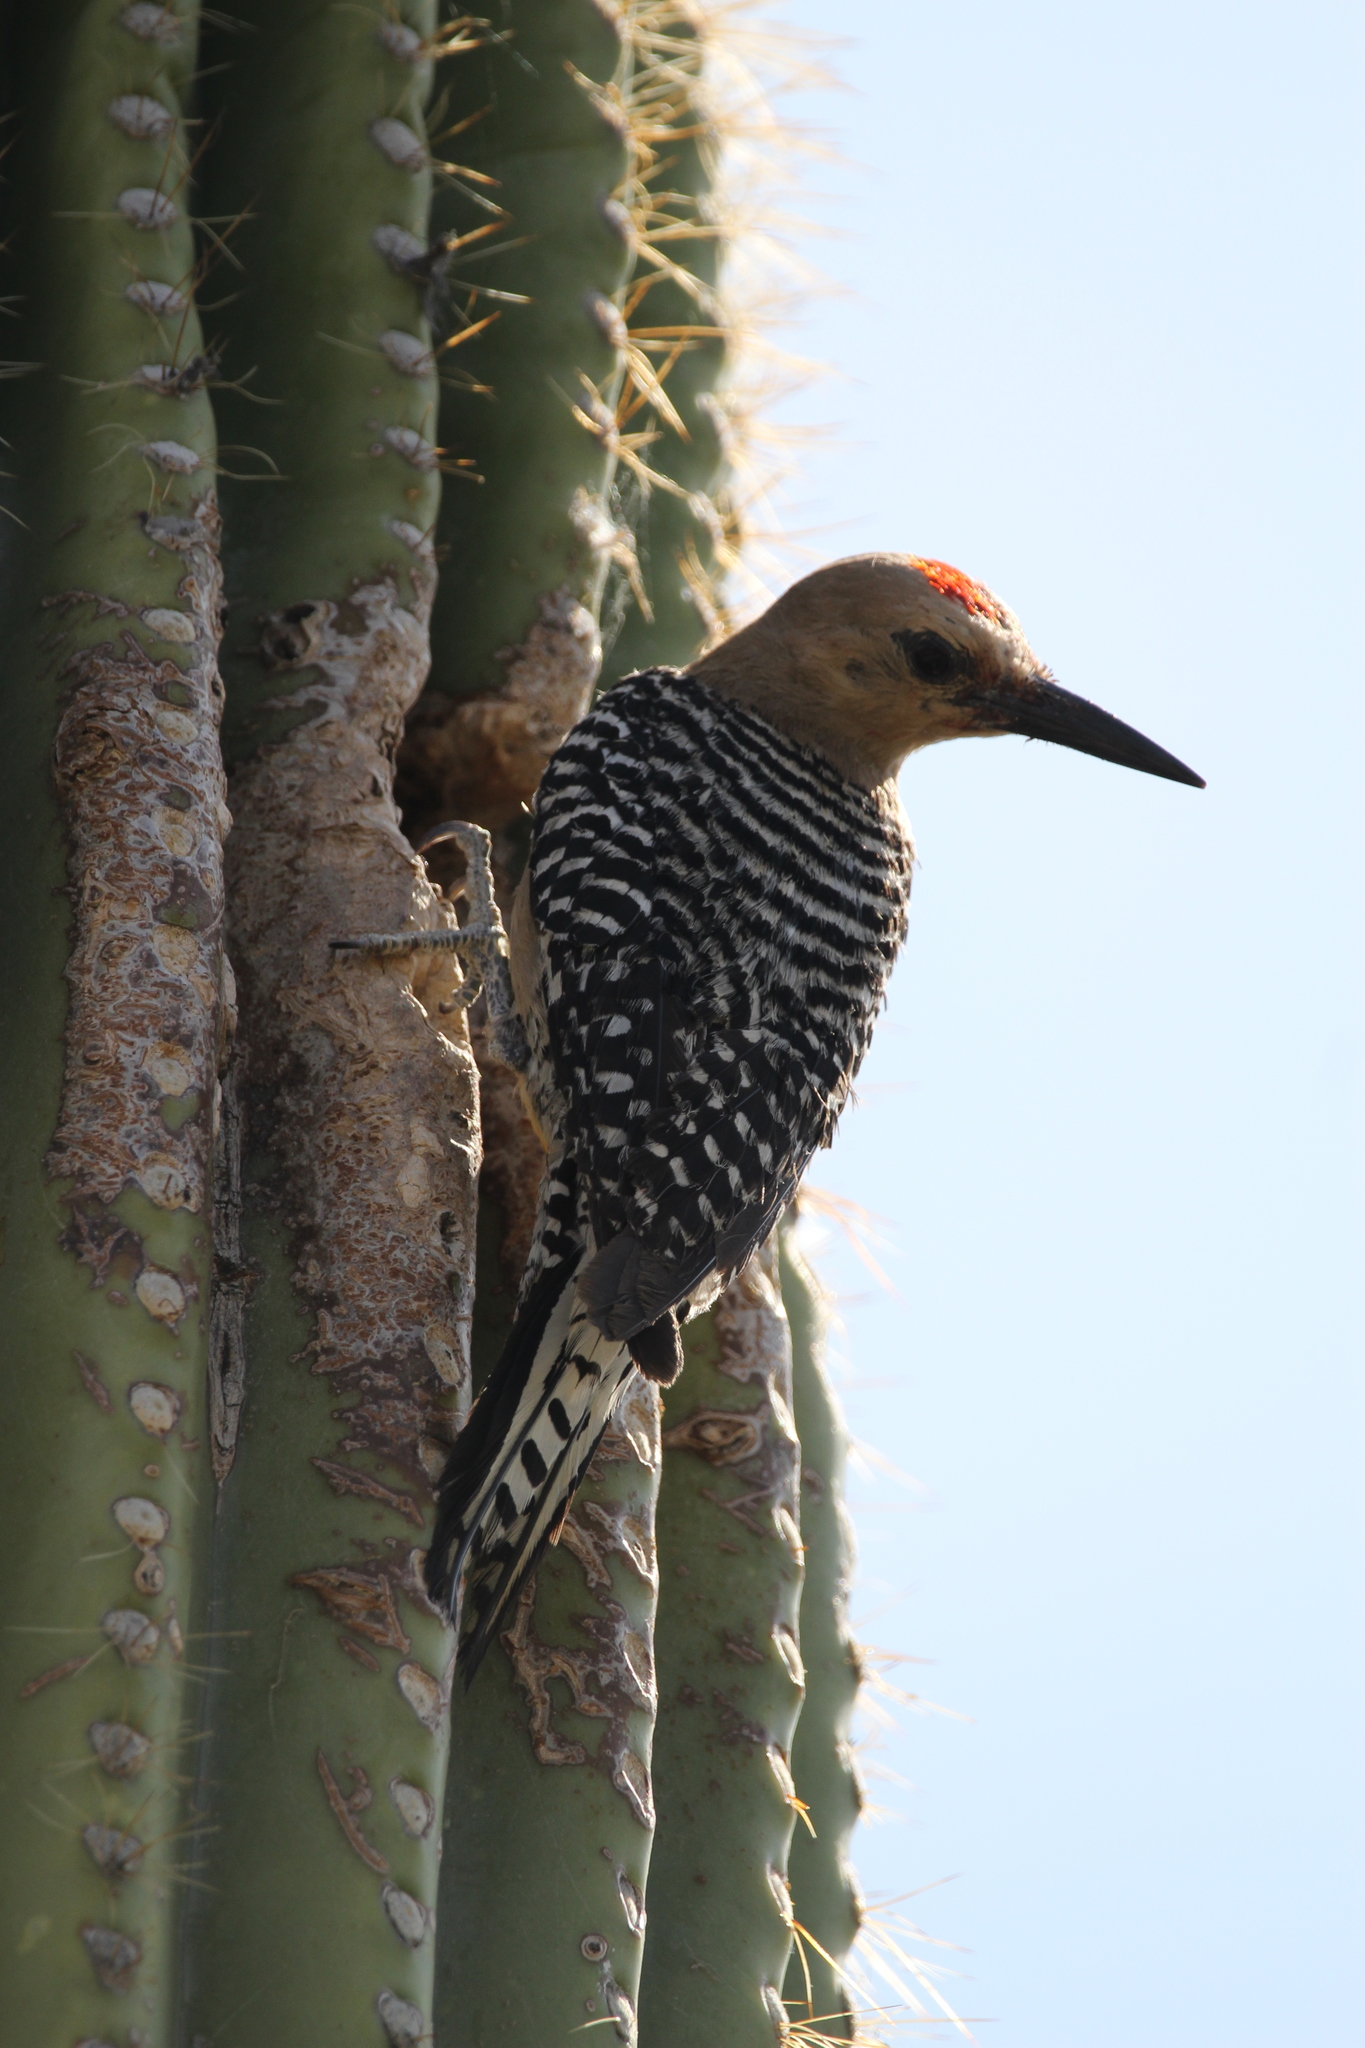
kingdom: Animalia
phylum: Chordata
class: Aves
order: Piciformes
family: Picidae
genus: Melanerpes
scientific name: Melanerpes uropygialis
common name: Gila woodpecker
